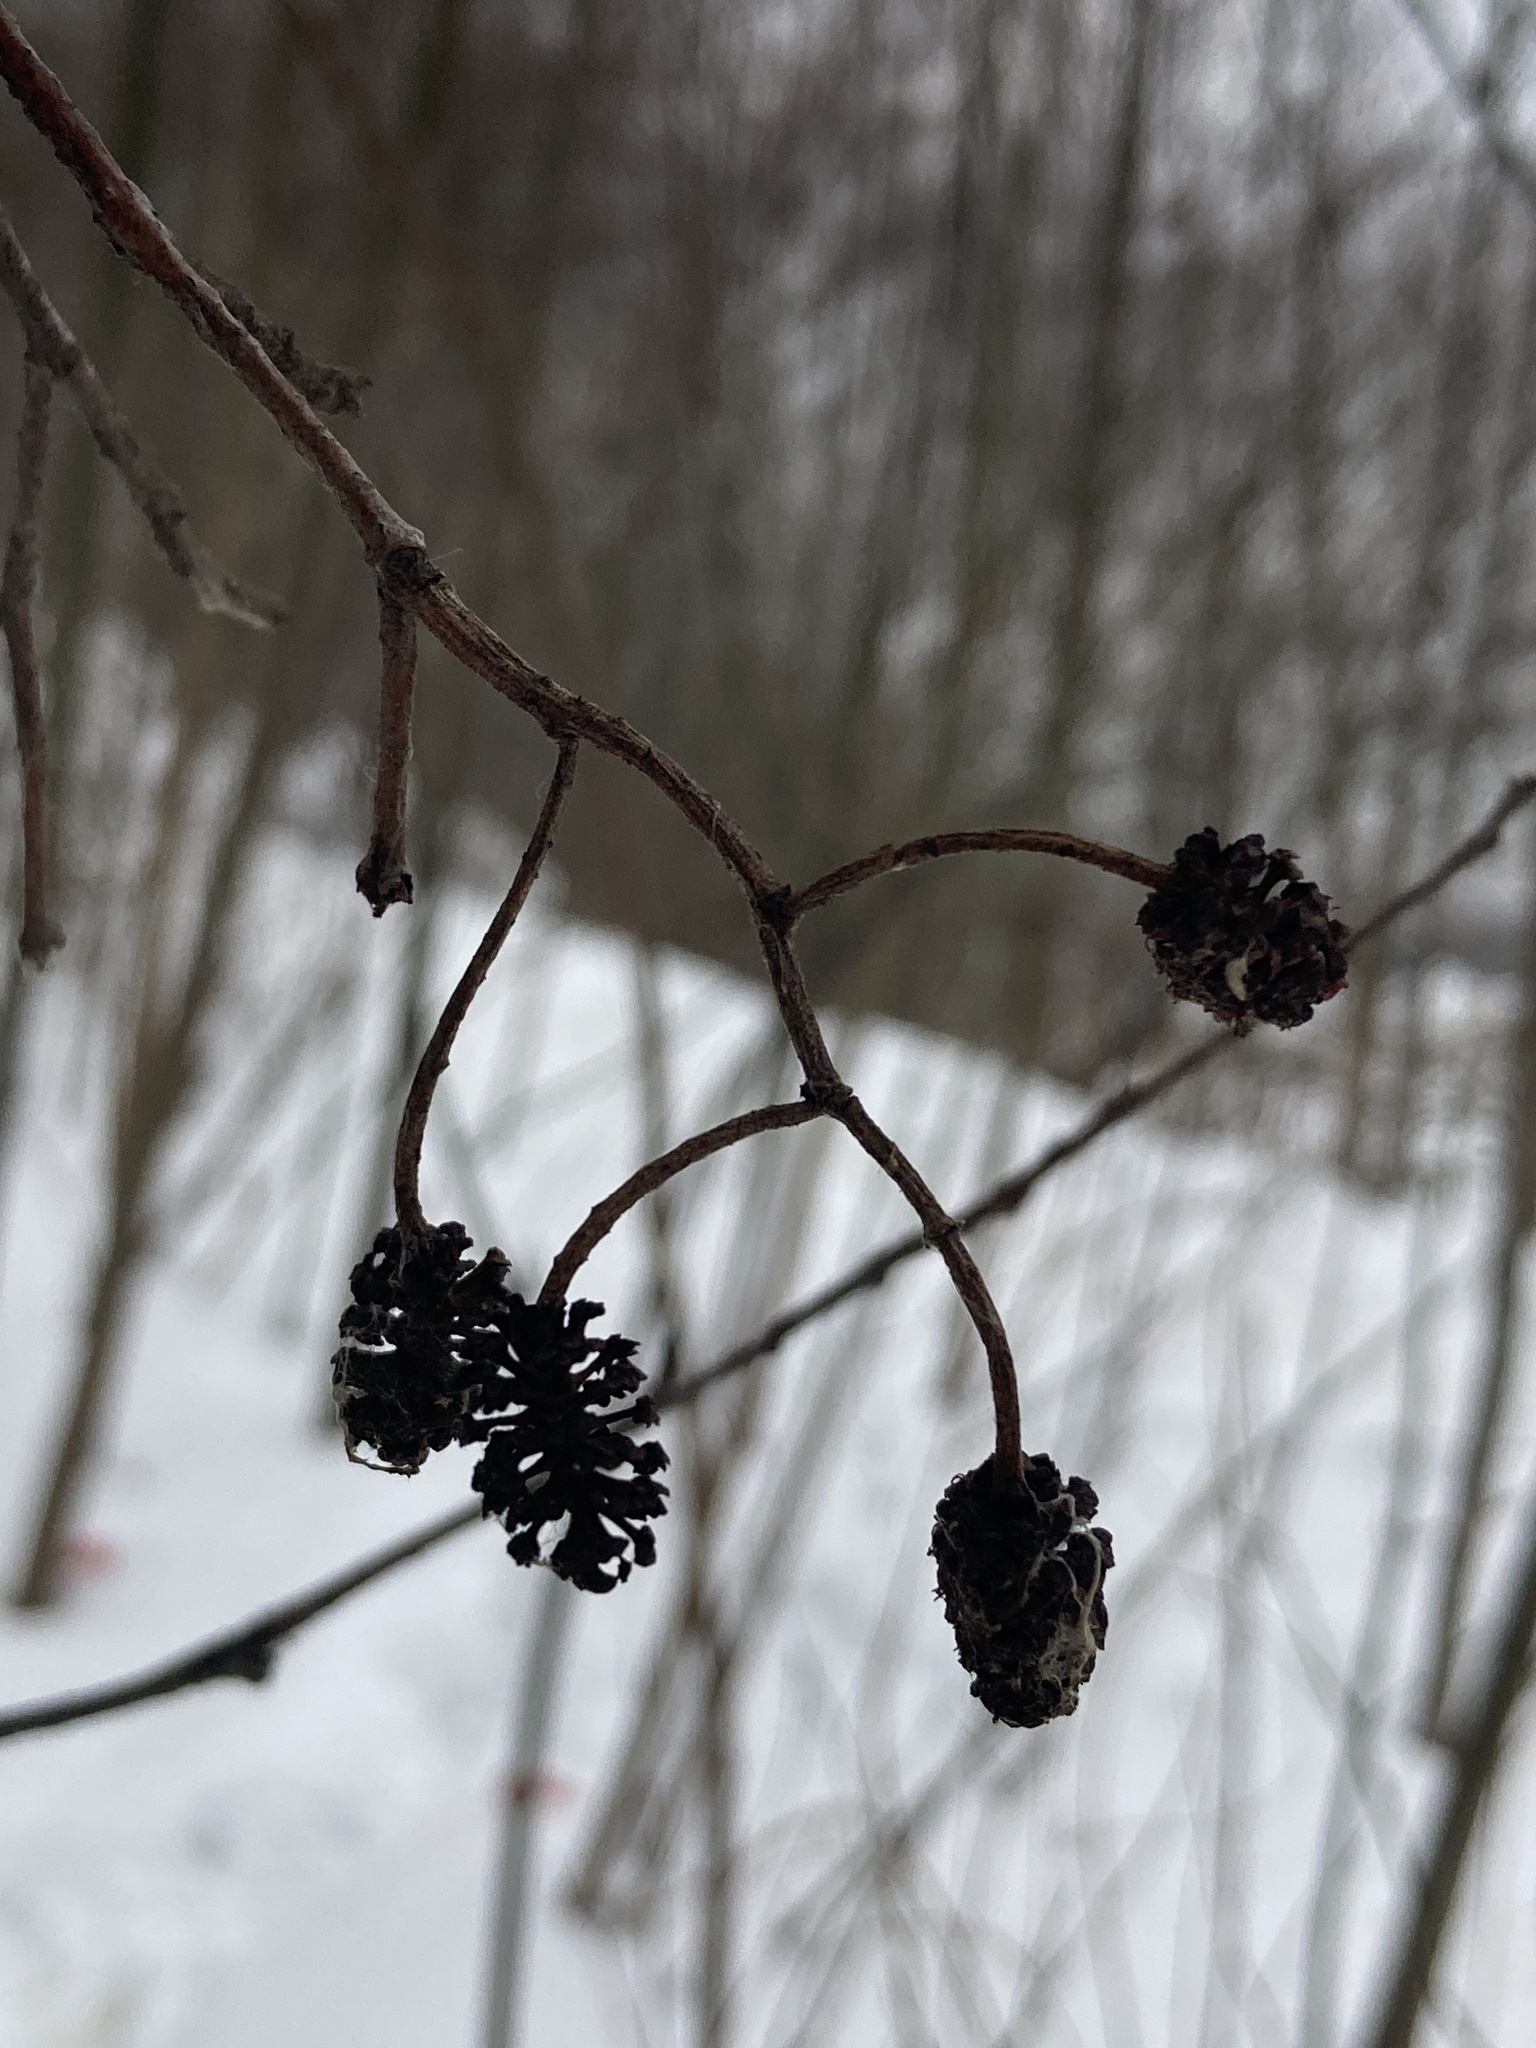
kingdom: Plantae
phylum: Tracheophyta
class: Magnoliopsida
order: Fagales
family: Betulaceae
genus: Alnus
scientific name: Alnus glutinosa
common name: Black alder
